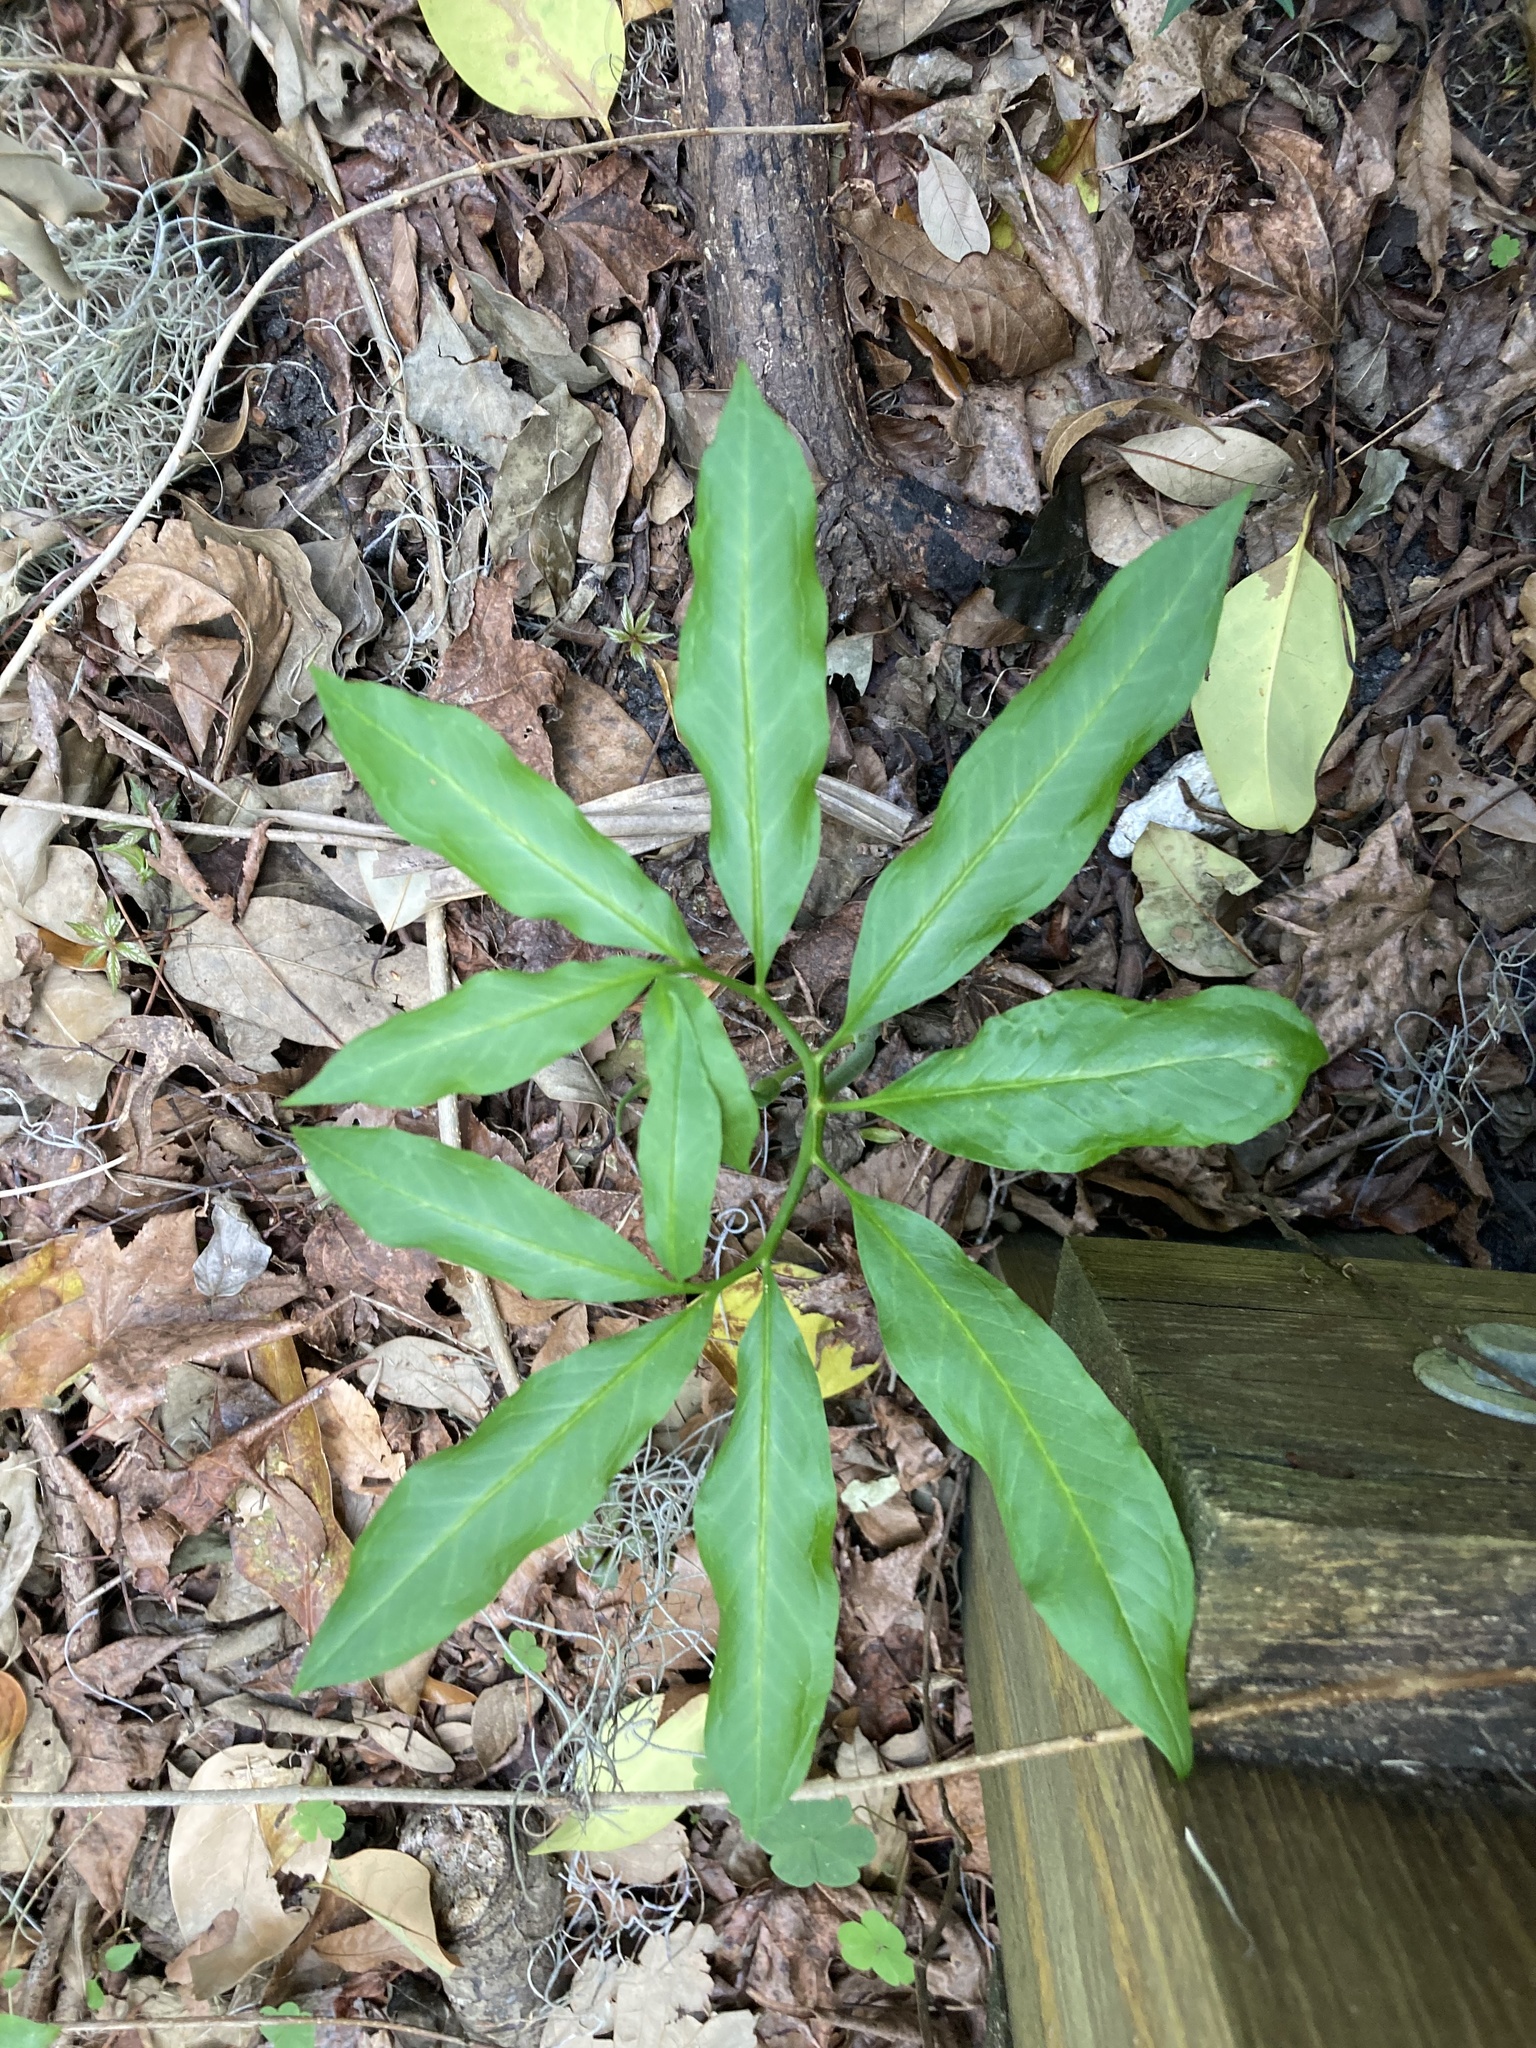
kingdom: Plantae
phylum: Tracheophyta
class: Liliopsida
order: Alismatales
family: Araceae
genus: Arisaema
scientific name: Arisaema dracontium
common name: Dragon-arum
